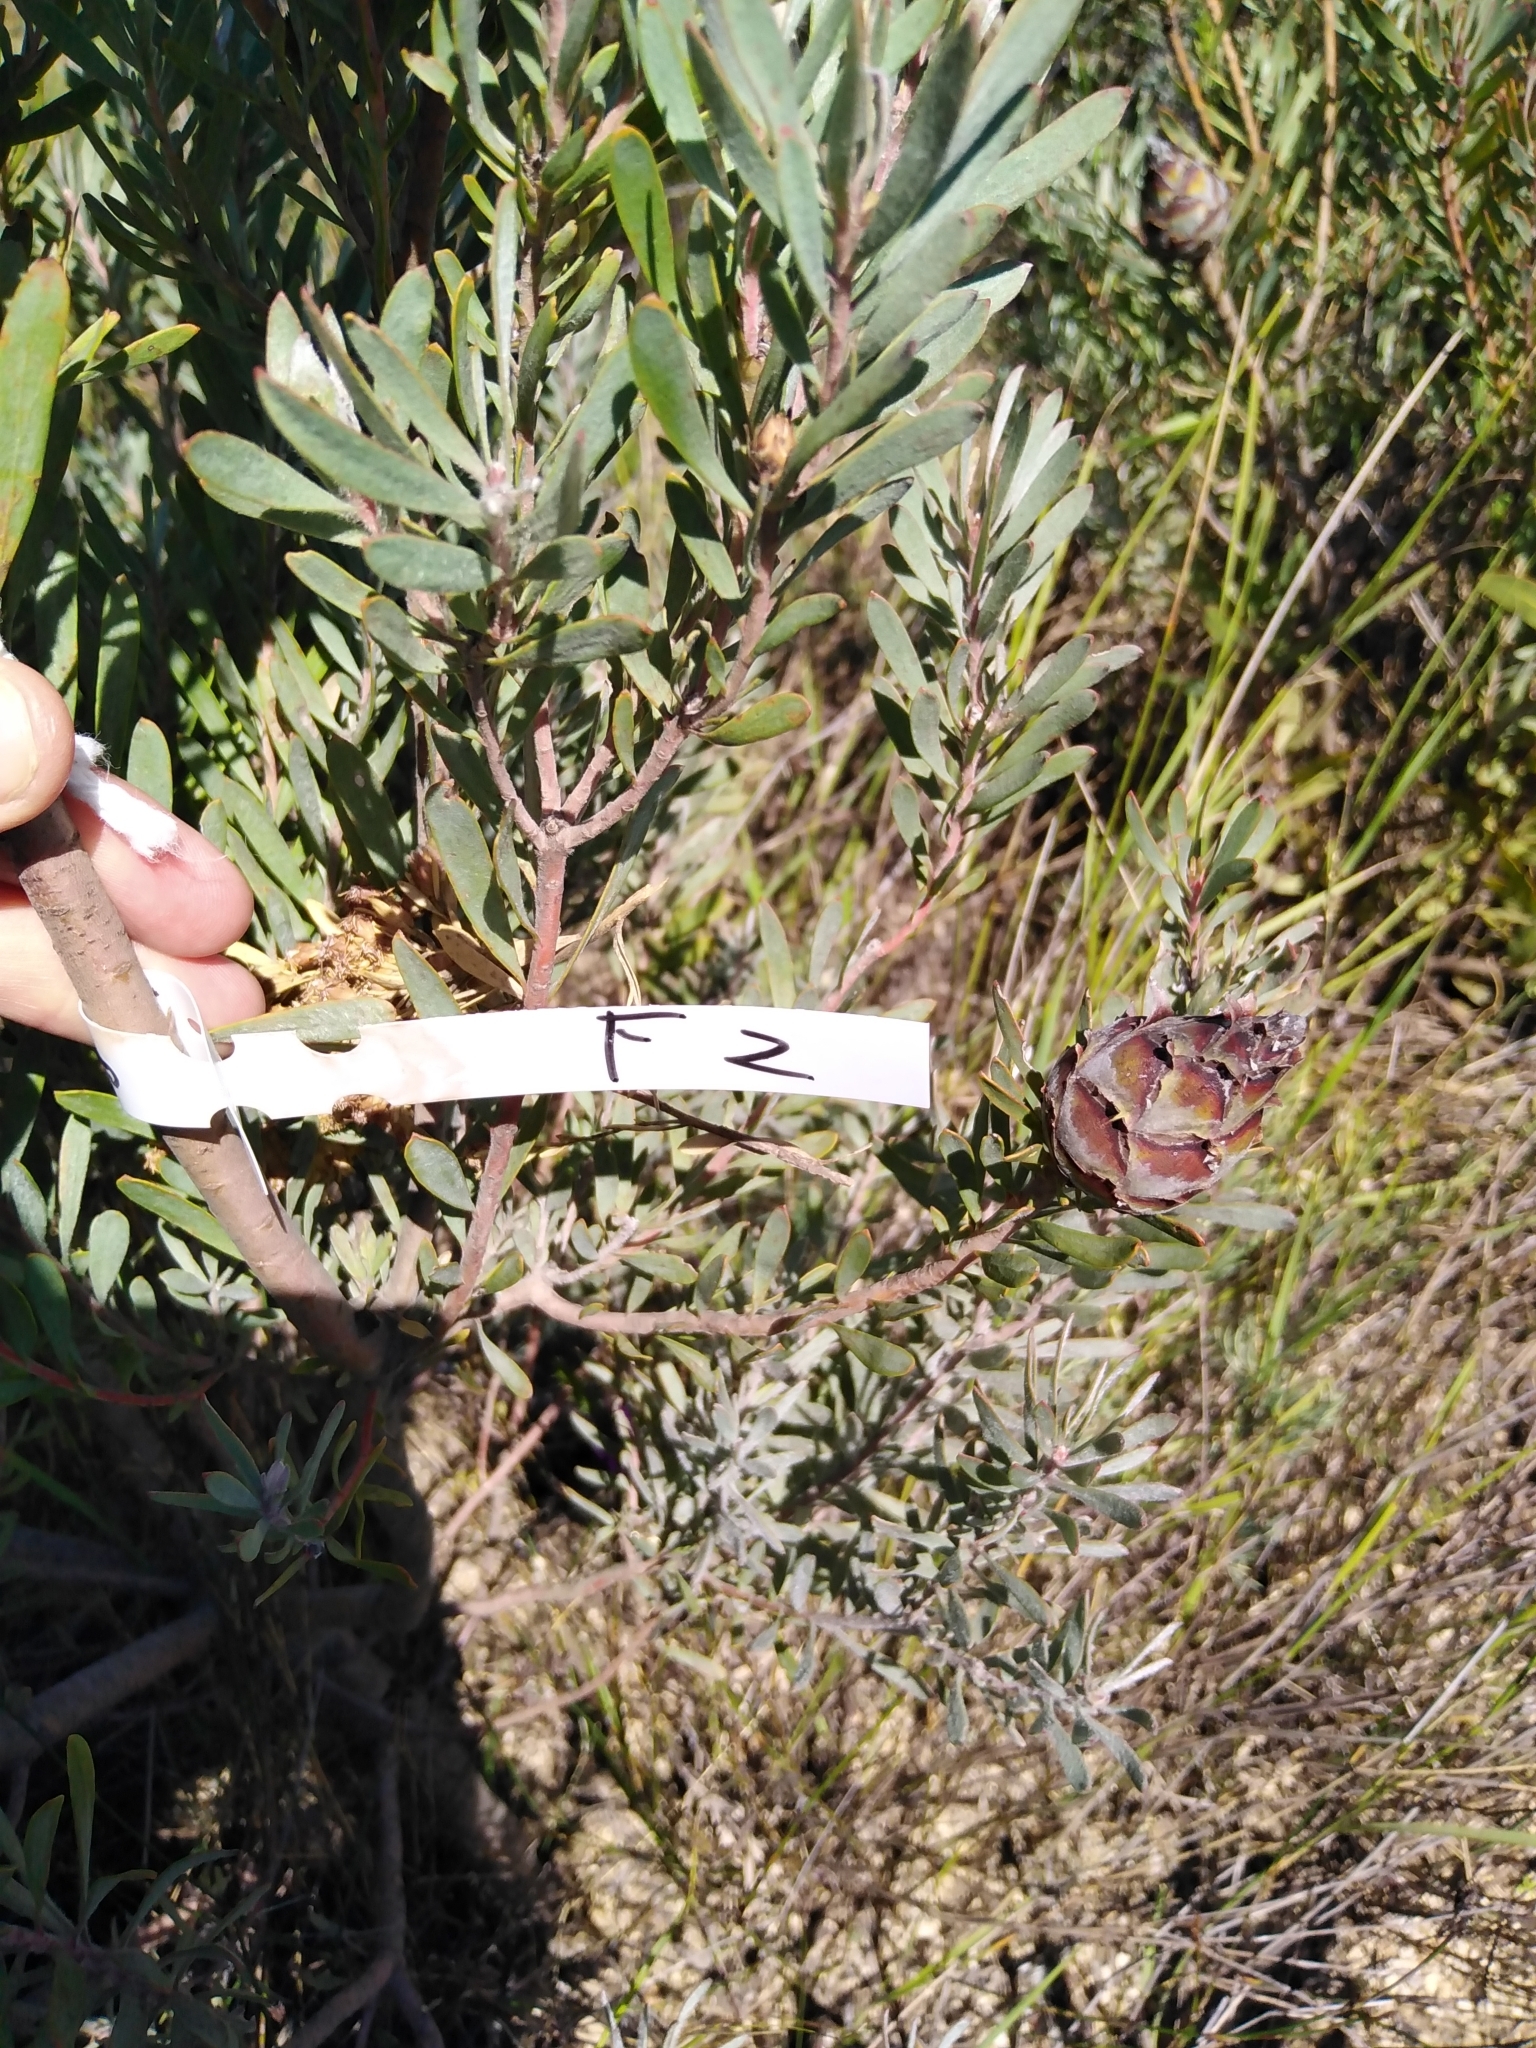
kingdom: Plantae
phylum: Tracheophyta
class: Magnoliopsida
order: Proteales
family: Proteaceae
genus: Leucadendron
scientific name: Leucadendron rubrum
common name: Spinning top
